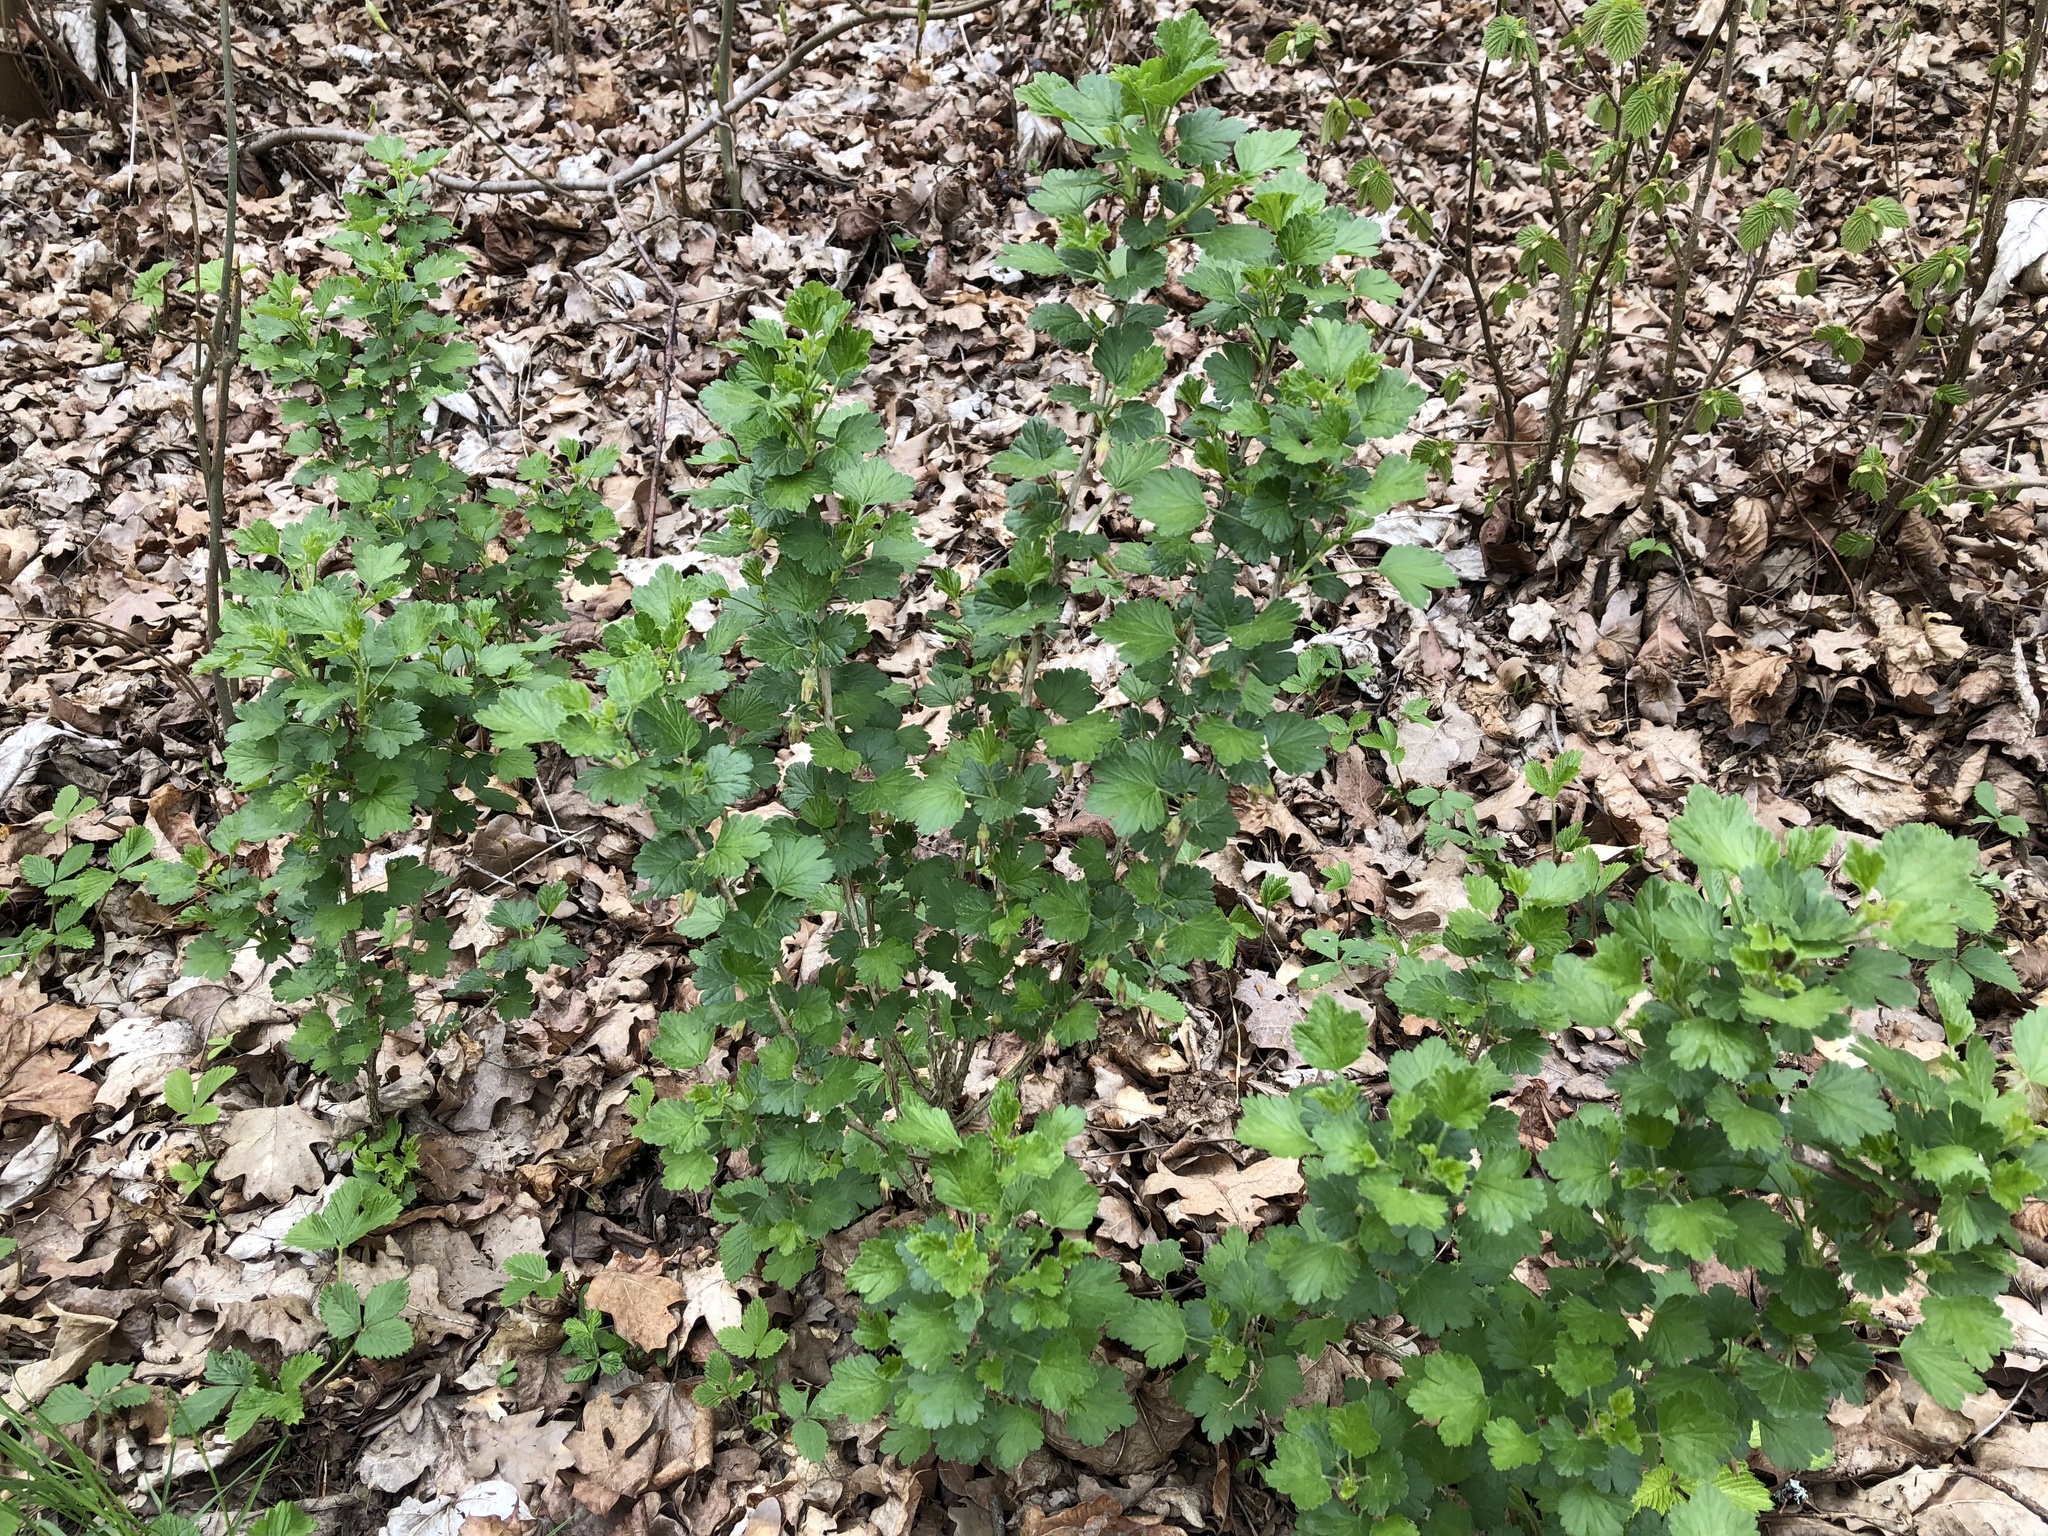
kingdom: Plantae
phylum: Tracheophyta
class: Magnoliopsida
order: Saxifragales
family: Grossulariaceae
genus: Ribes
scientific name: Ribes uva-crispa
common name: Gooseberry
